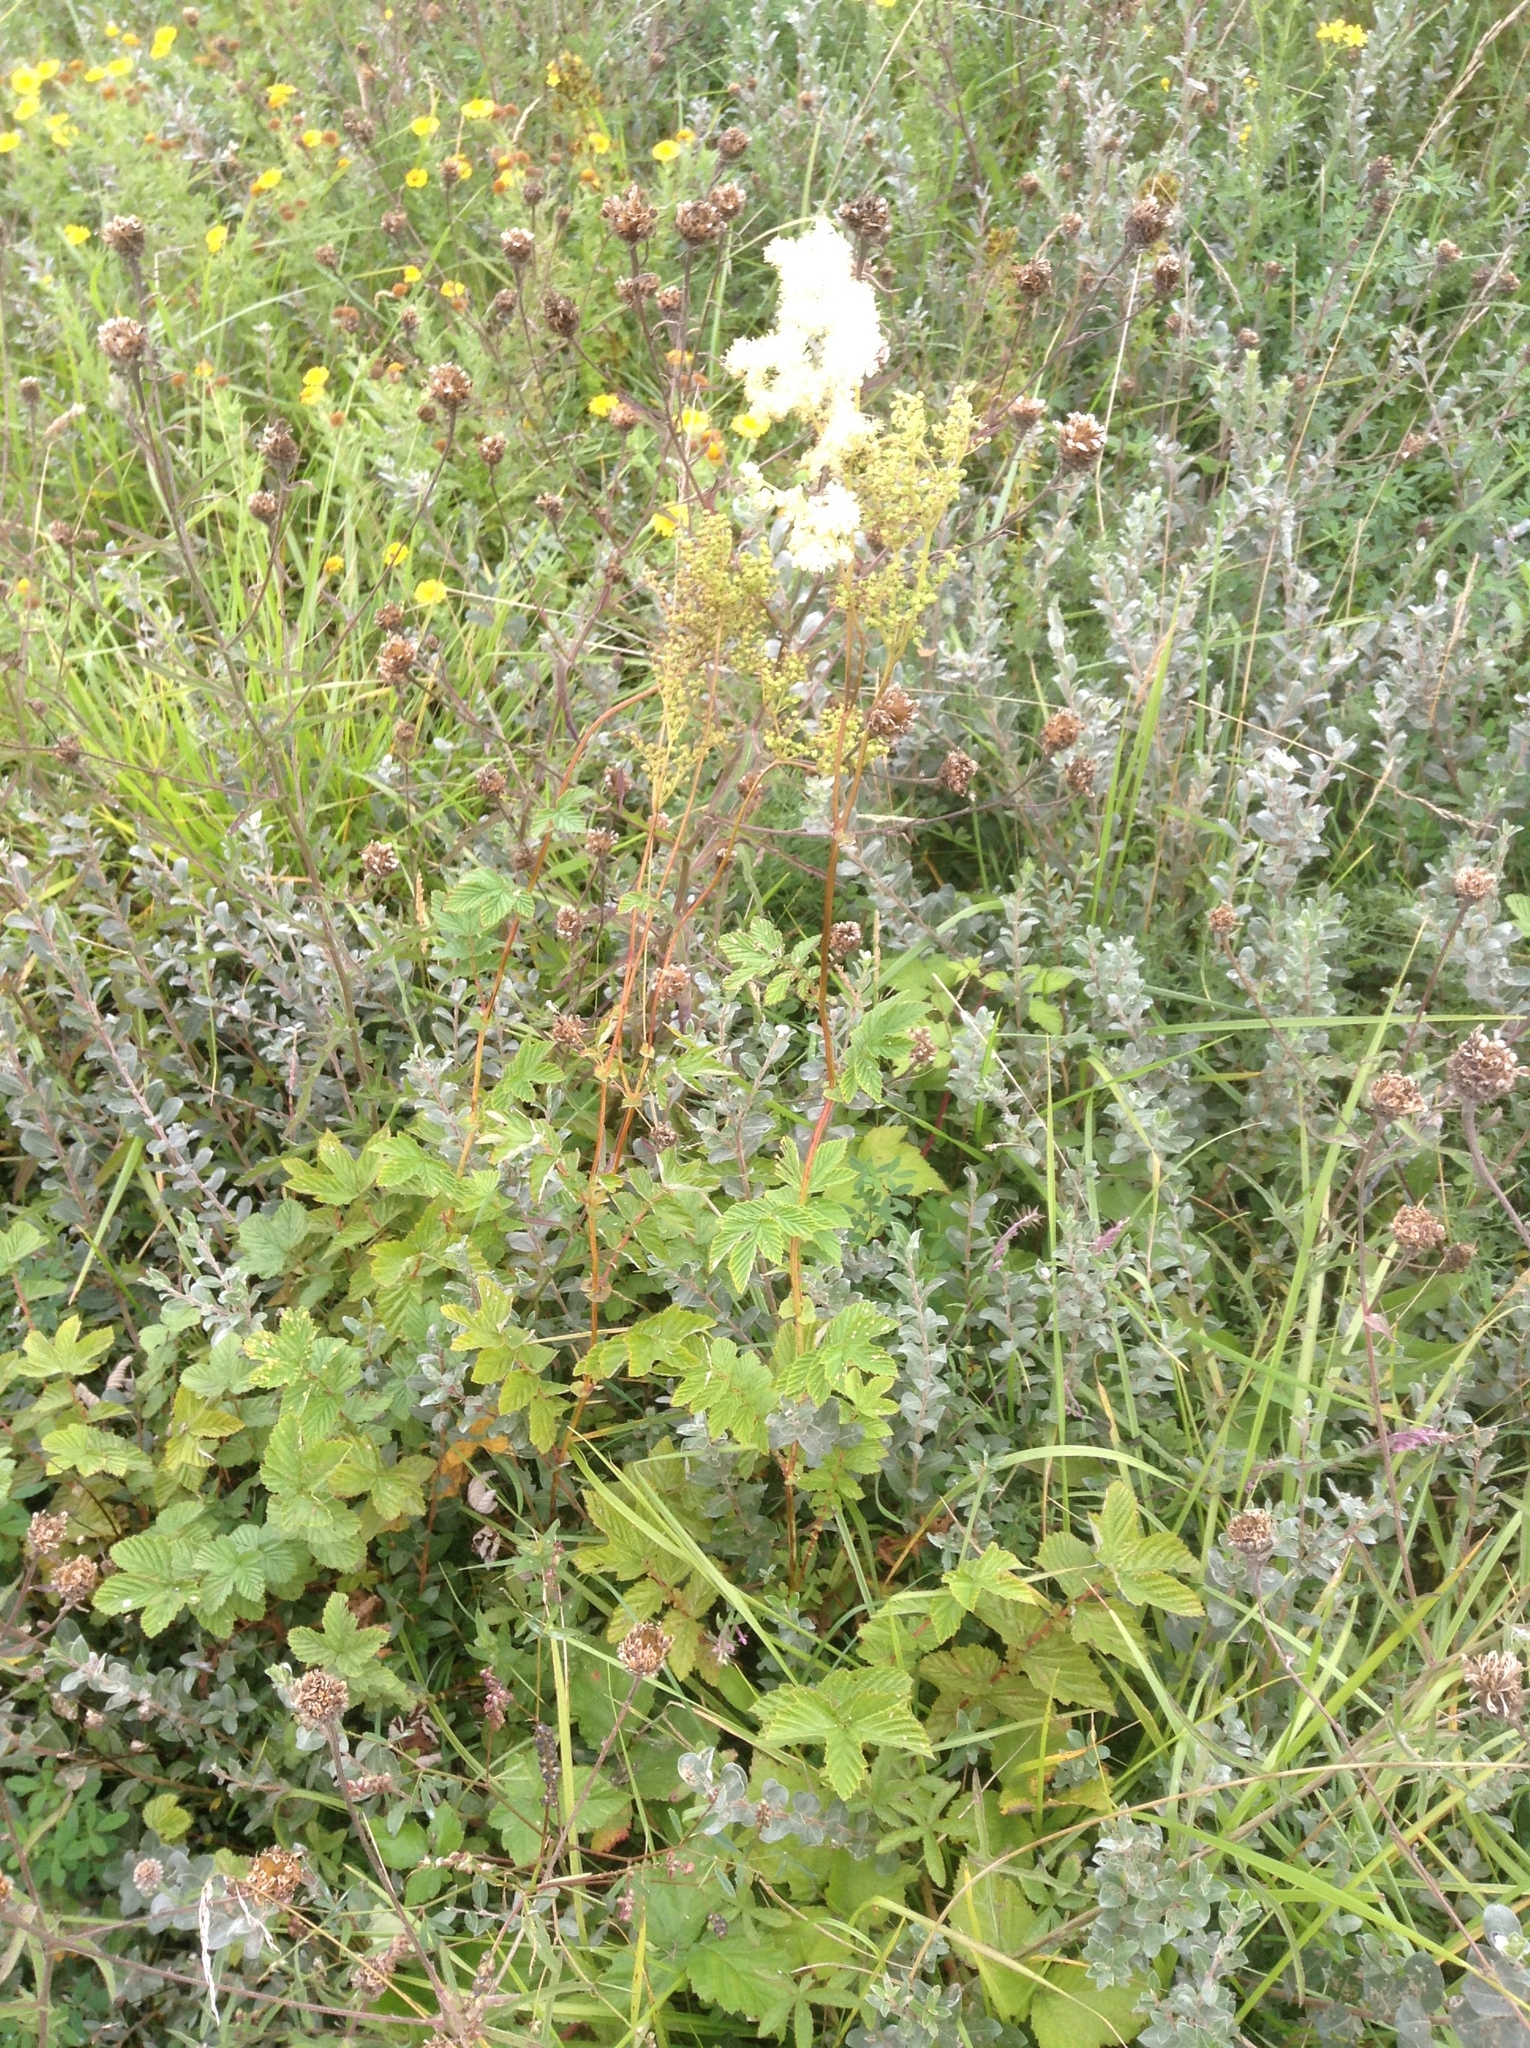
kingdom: Plantae
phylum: Tracheophyta
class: Magnoliopsida
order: Rosales
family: Rosaceae
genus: Filipendula
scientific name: Filipendula ulmaria
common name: Meadowsweet
